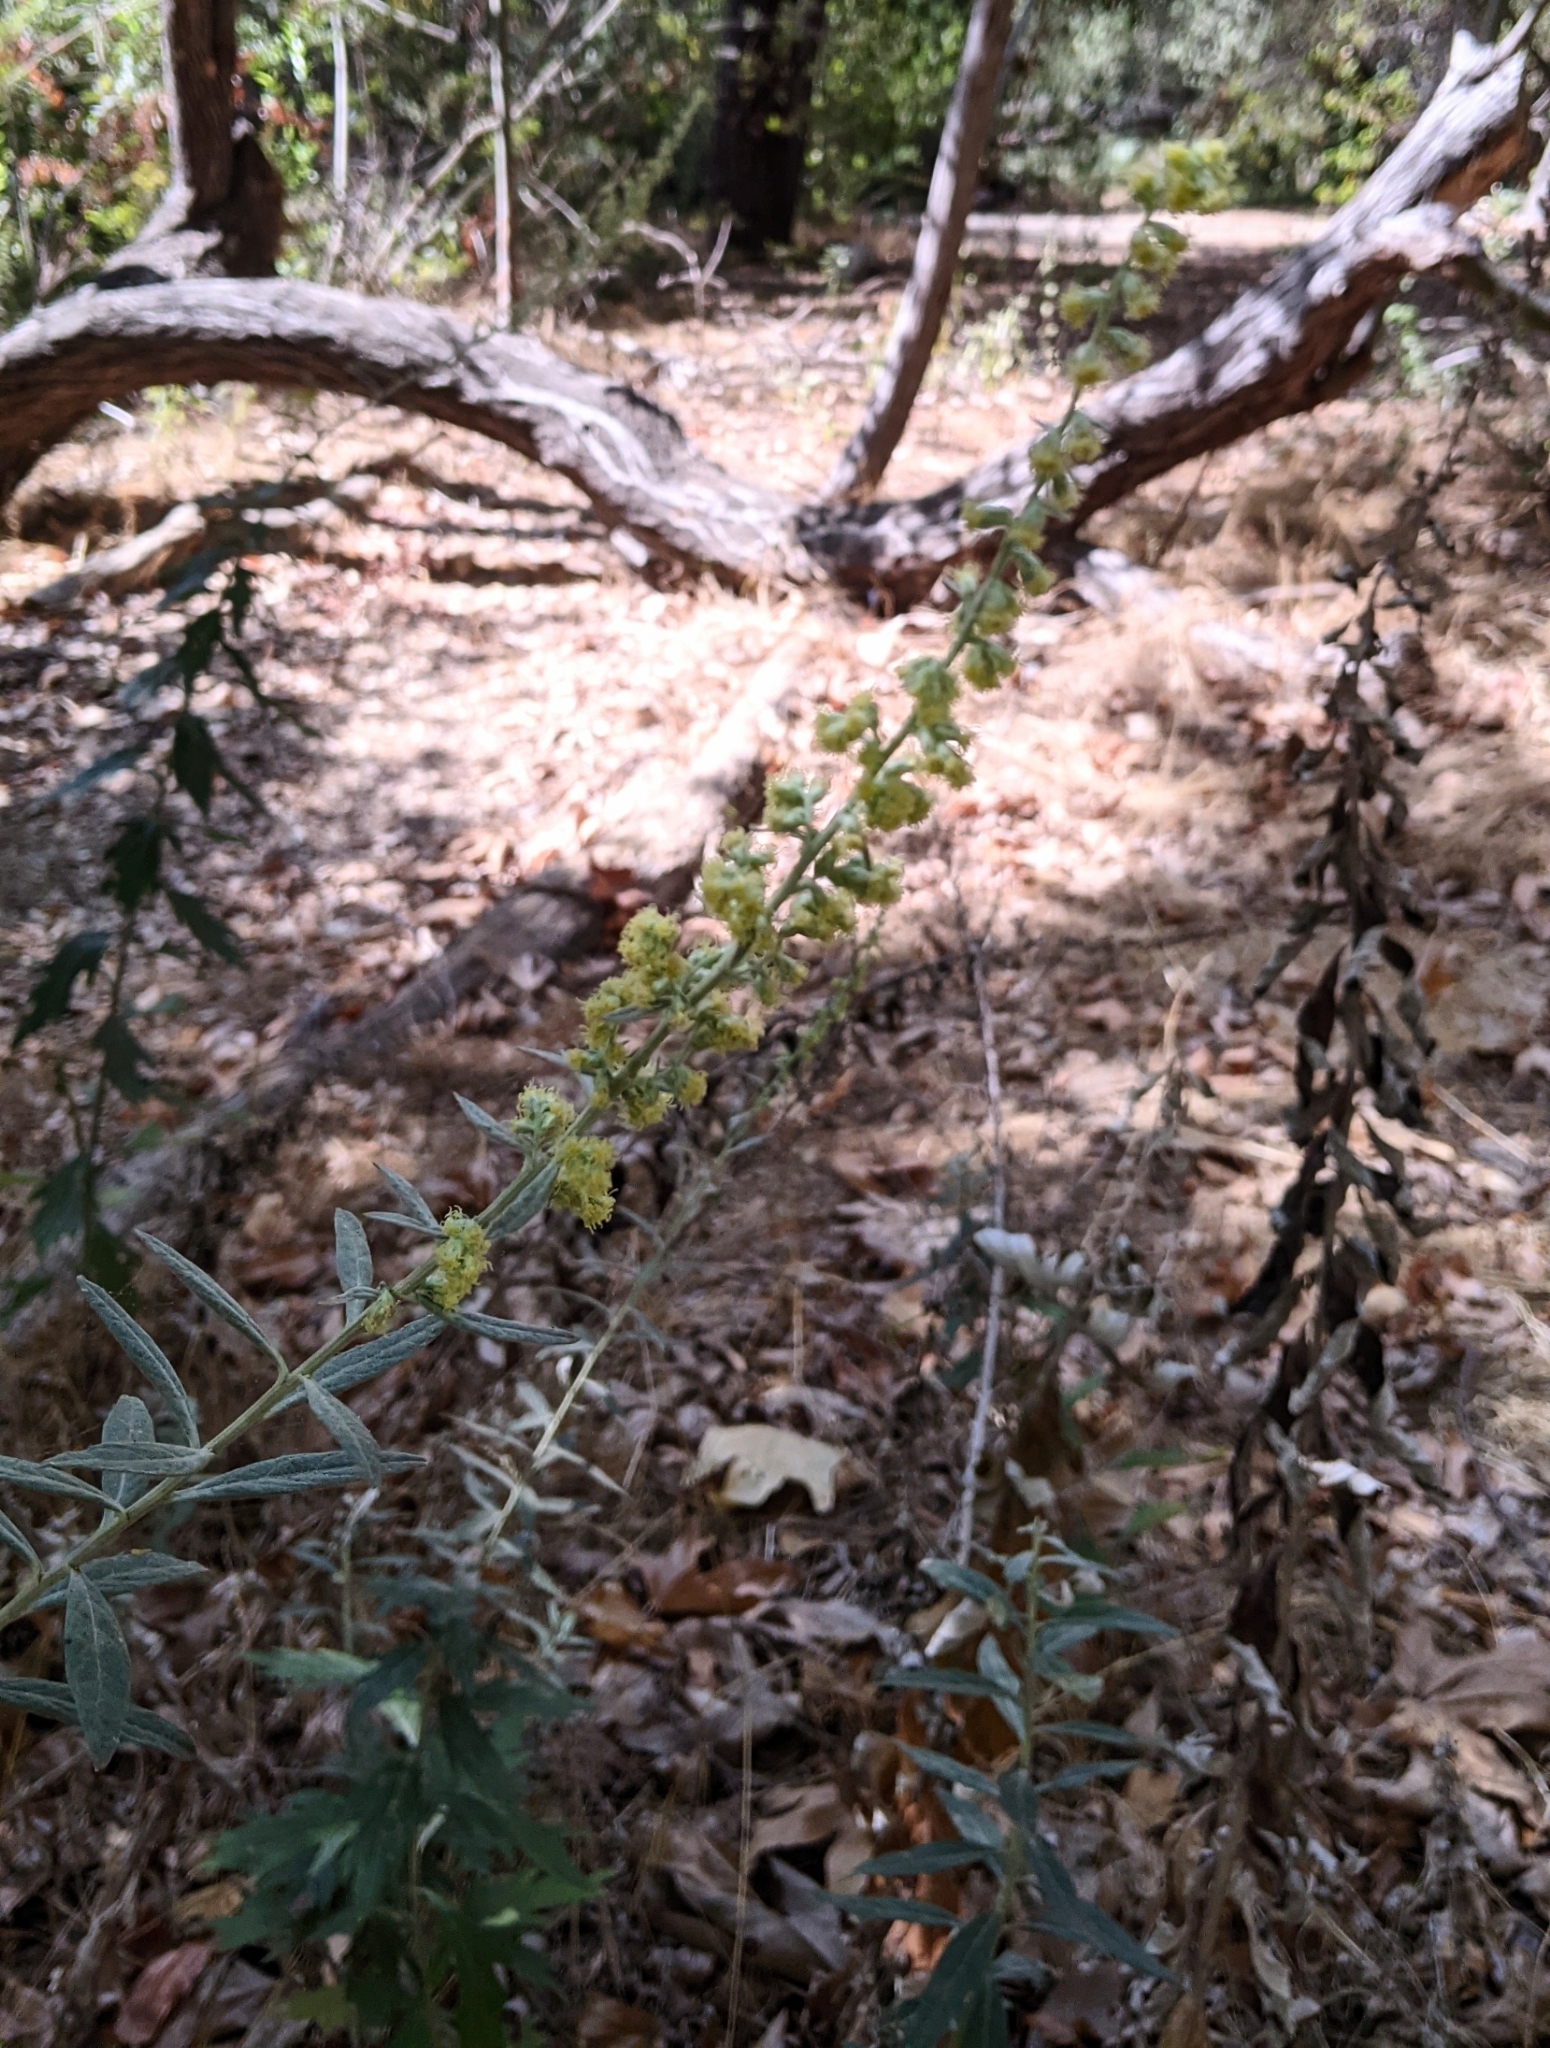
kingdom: Plantae
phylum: Tracheophyta
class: Magnoliopsida
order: Asterales
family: Asteraceae
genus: Artemisia
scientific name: Artemisia douglasiana
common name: Northwest mugwort
